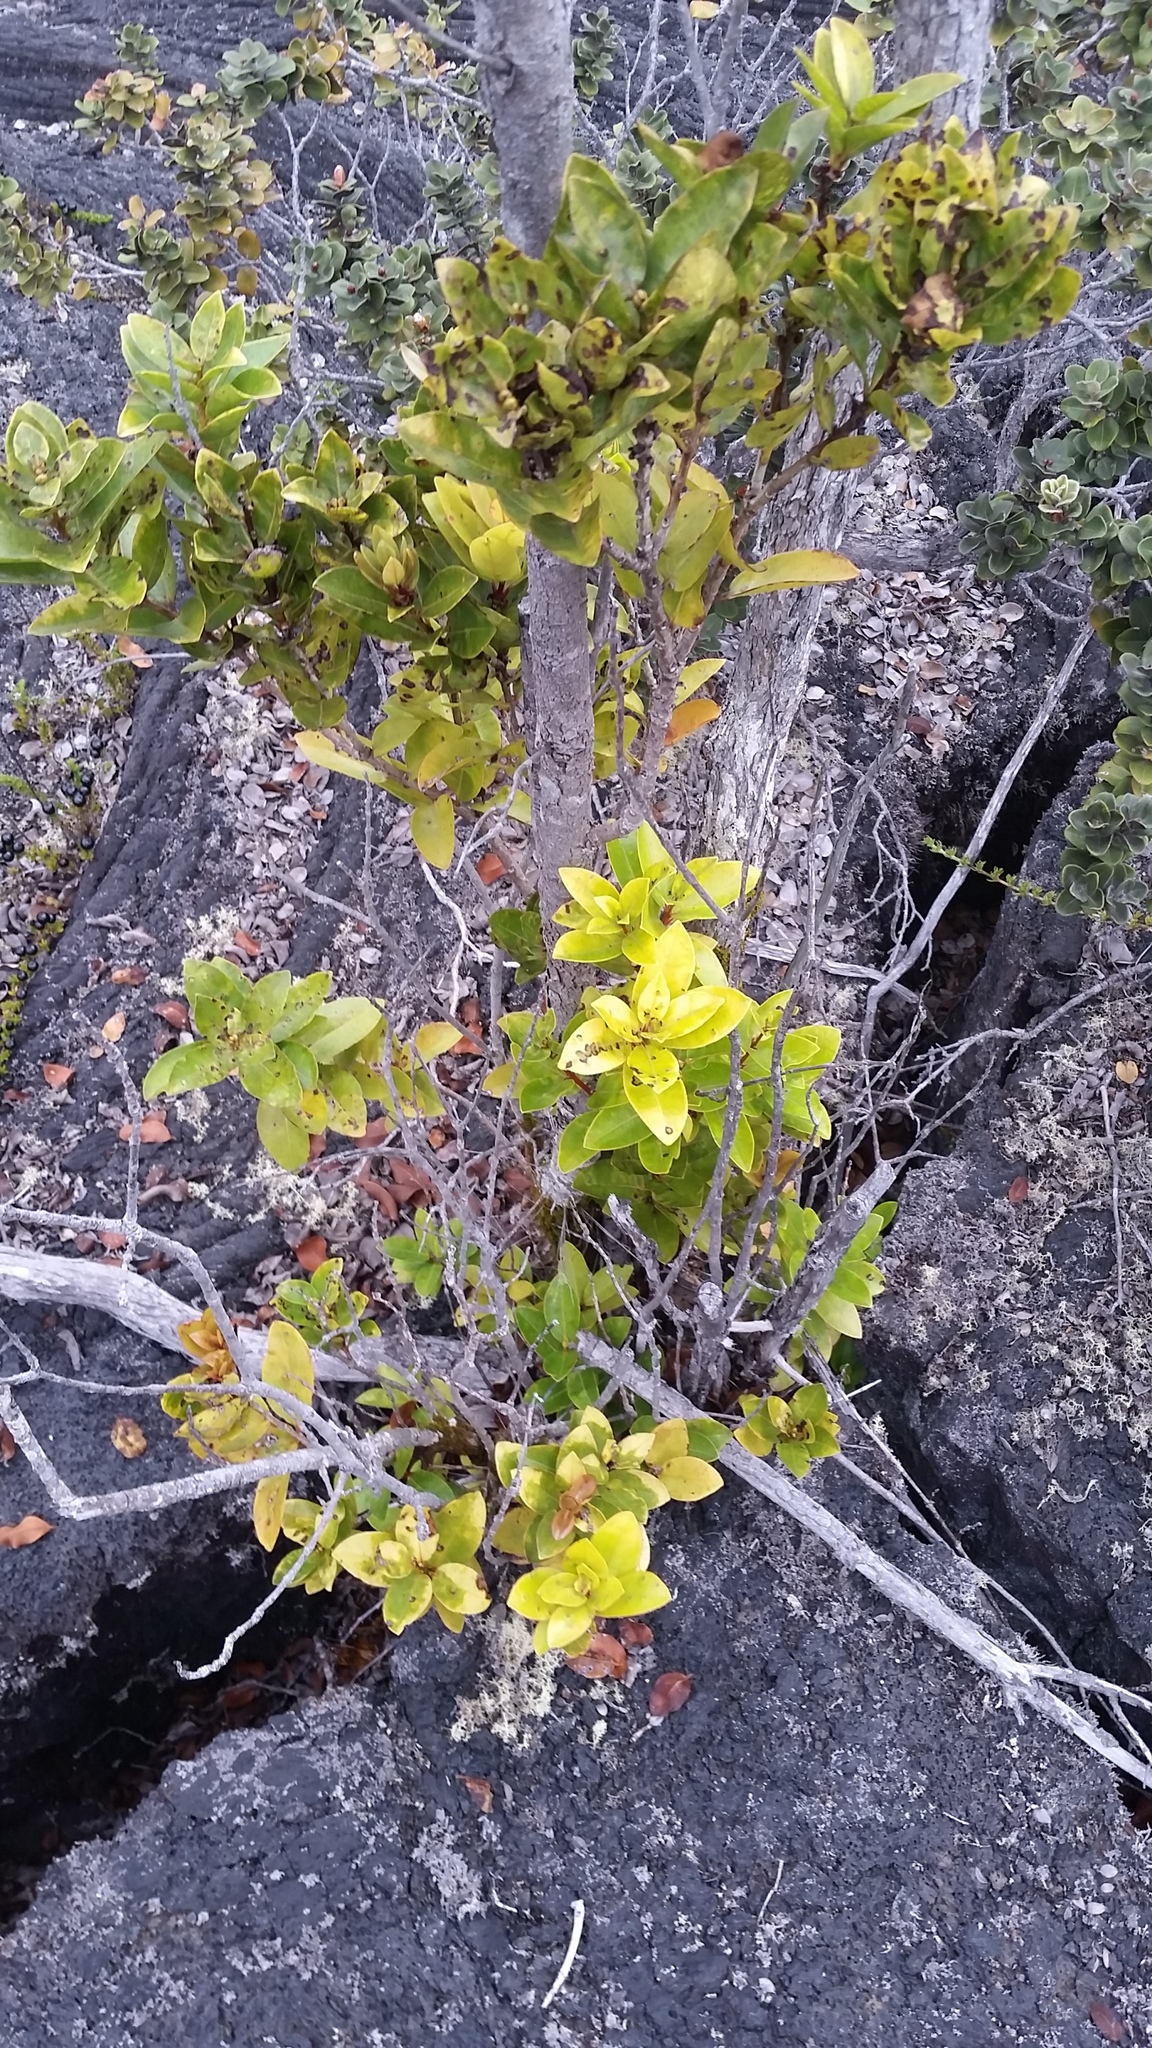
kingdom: Plantae
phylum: Tracheophyta
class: Magnoliopsida
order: Myrtales
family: Myrtaceae
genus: Metrosideros
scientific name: Metrosideros polymorpha
